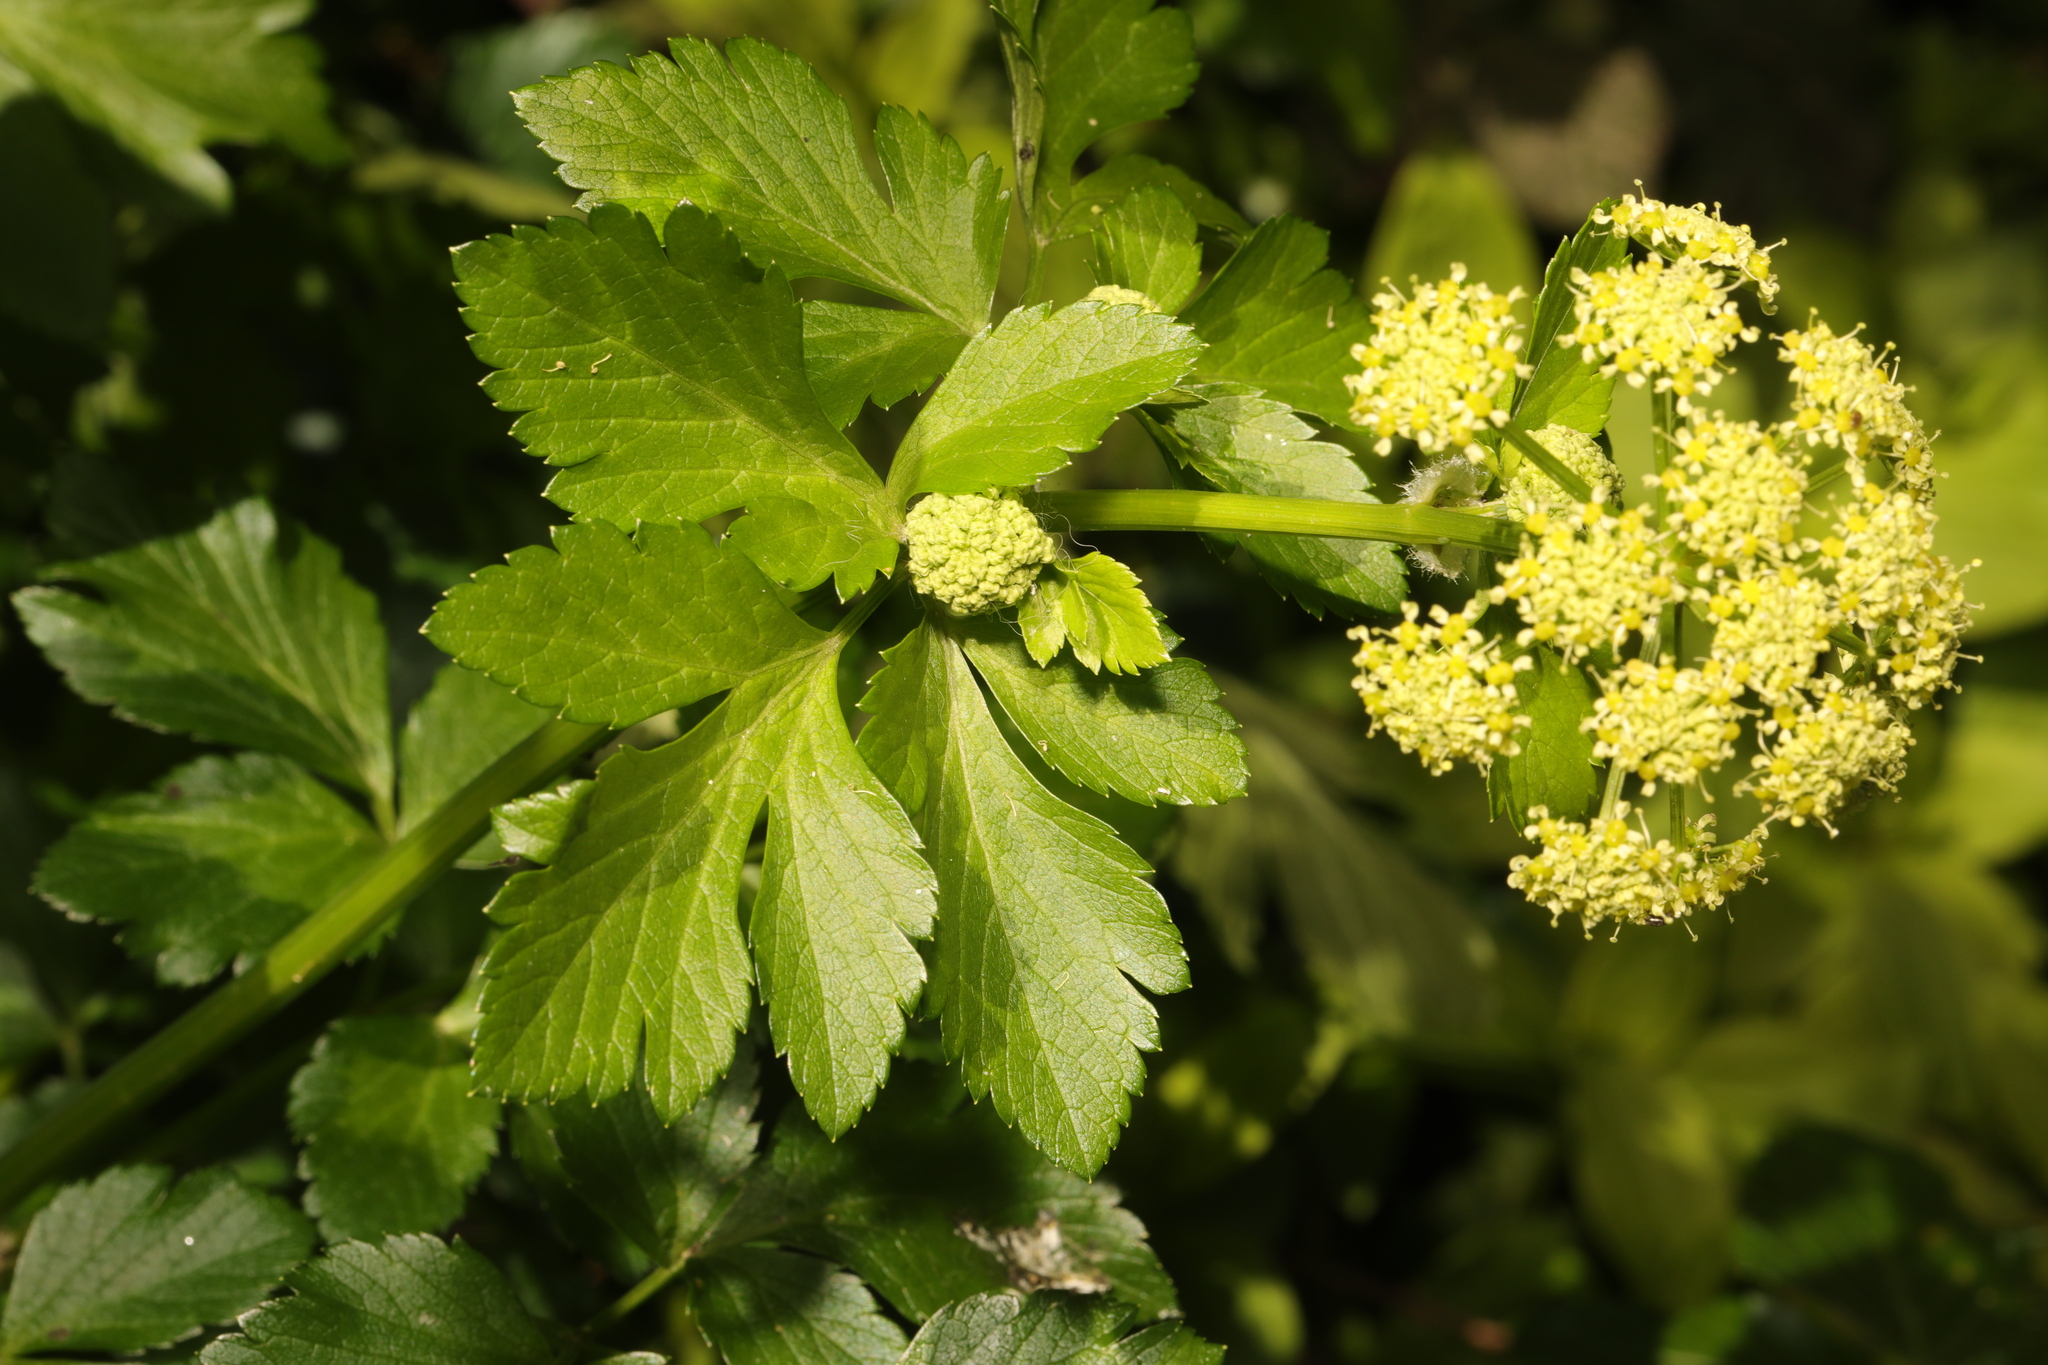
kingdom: Plantae
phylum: Tracheophyta
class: Magnoliopsida
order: Apiales
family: Apiaceae
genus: Smyrnium
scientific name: Smyrnium olusatrum
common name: Alexanders
